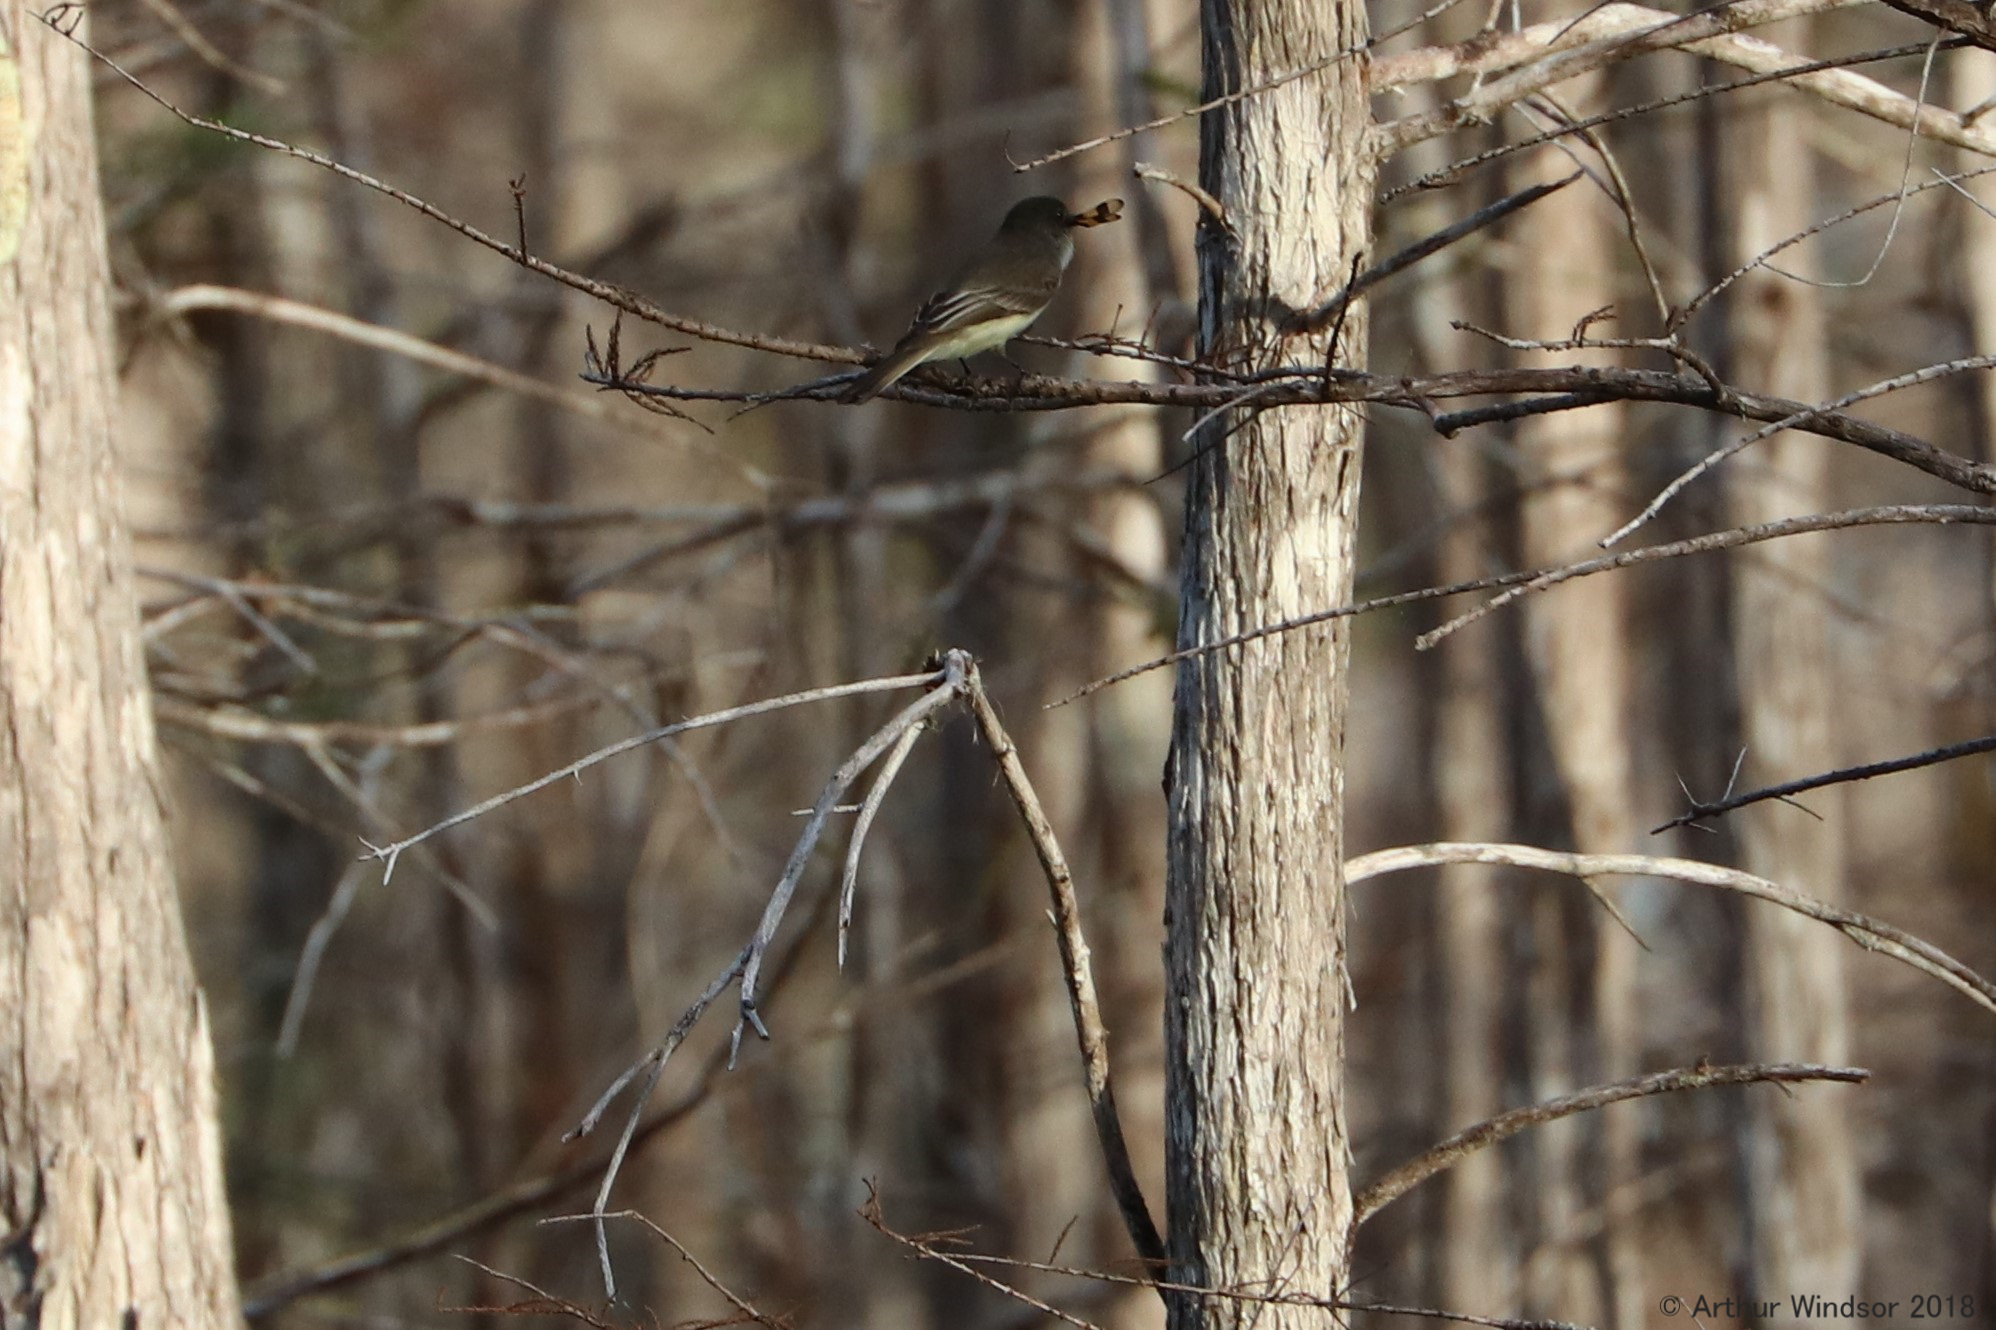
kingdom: Animalia
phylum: Chordata
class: Aves
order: Passeriformes
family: Tyrannidae
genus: Sayornis
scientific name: Sayornis phoebe
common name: Eastern phoebe
